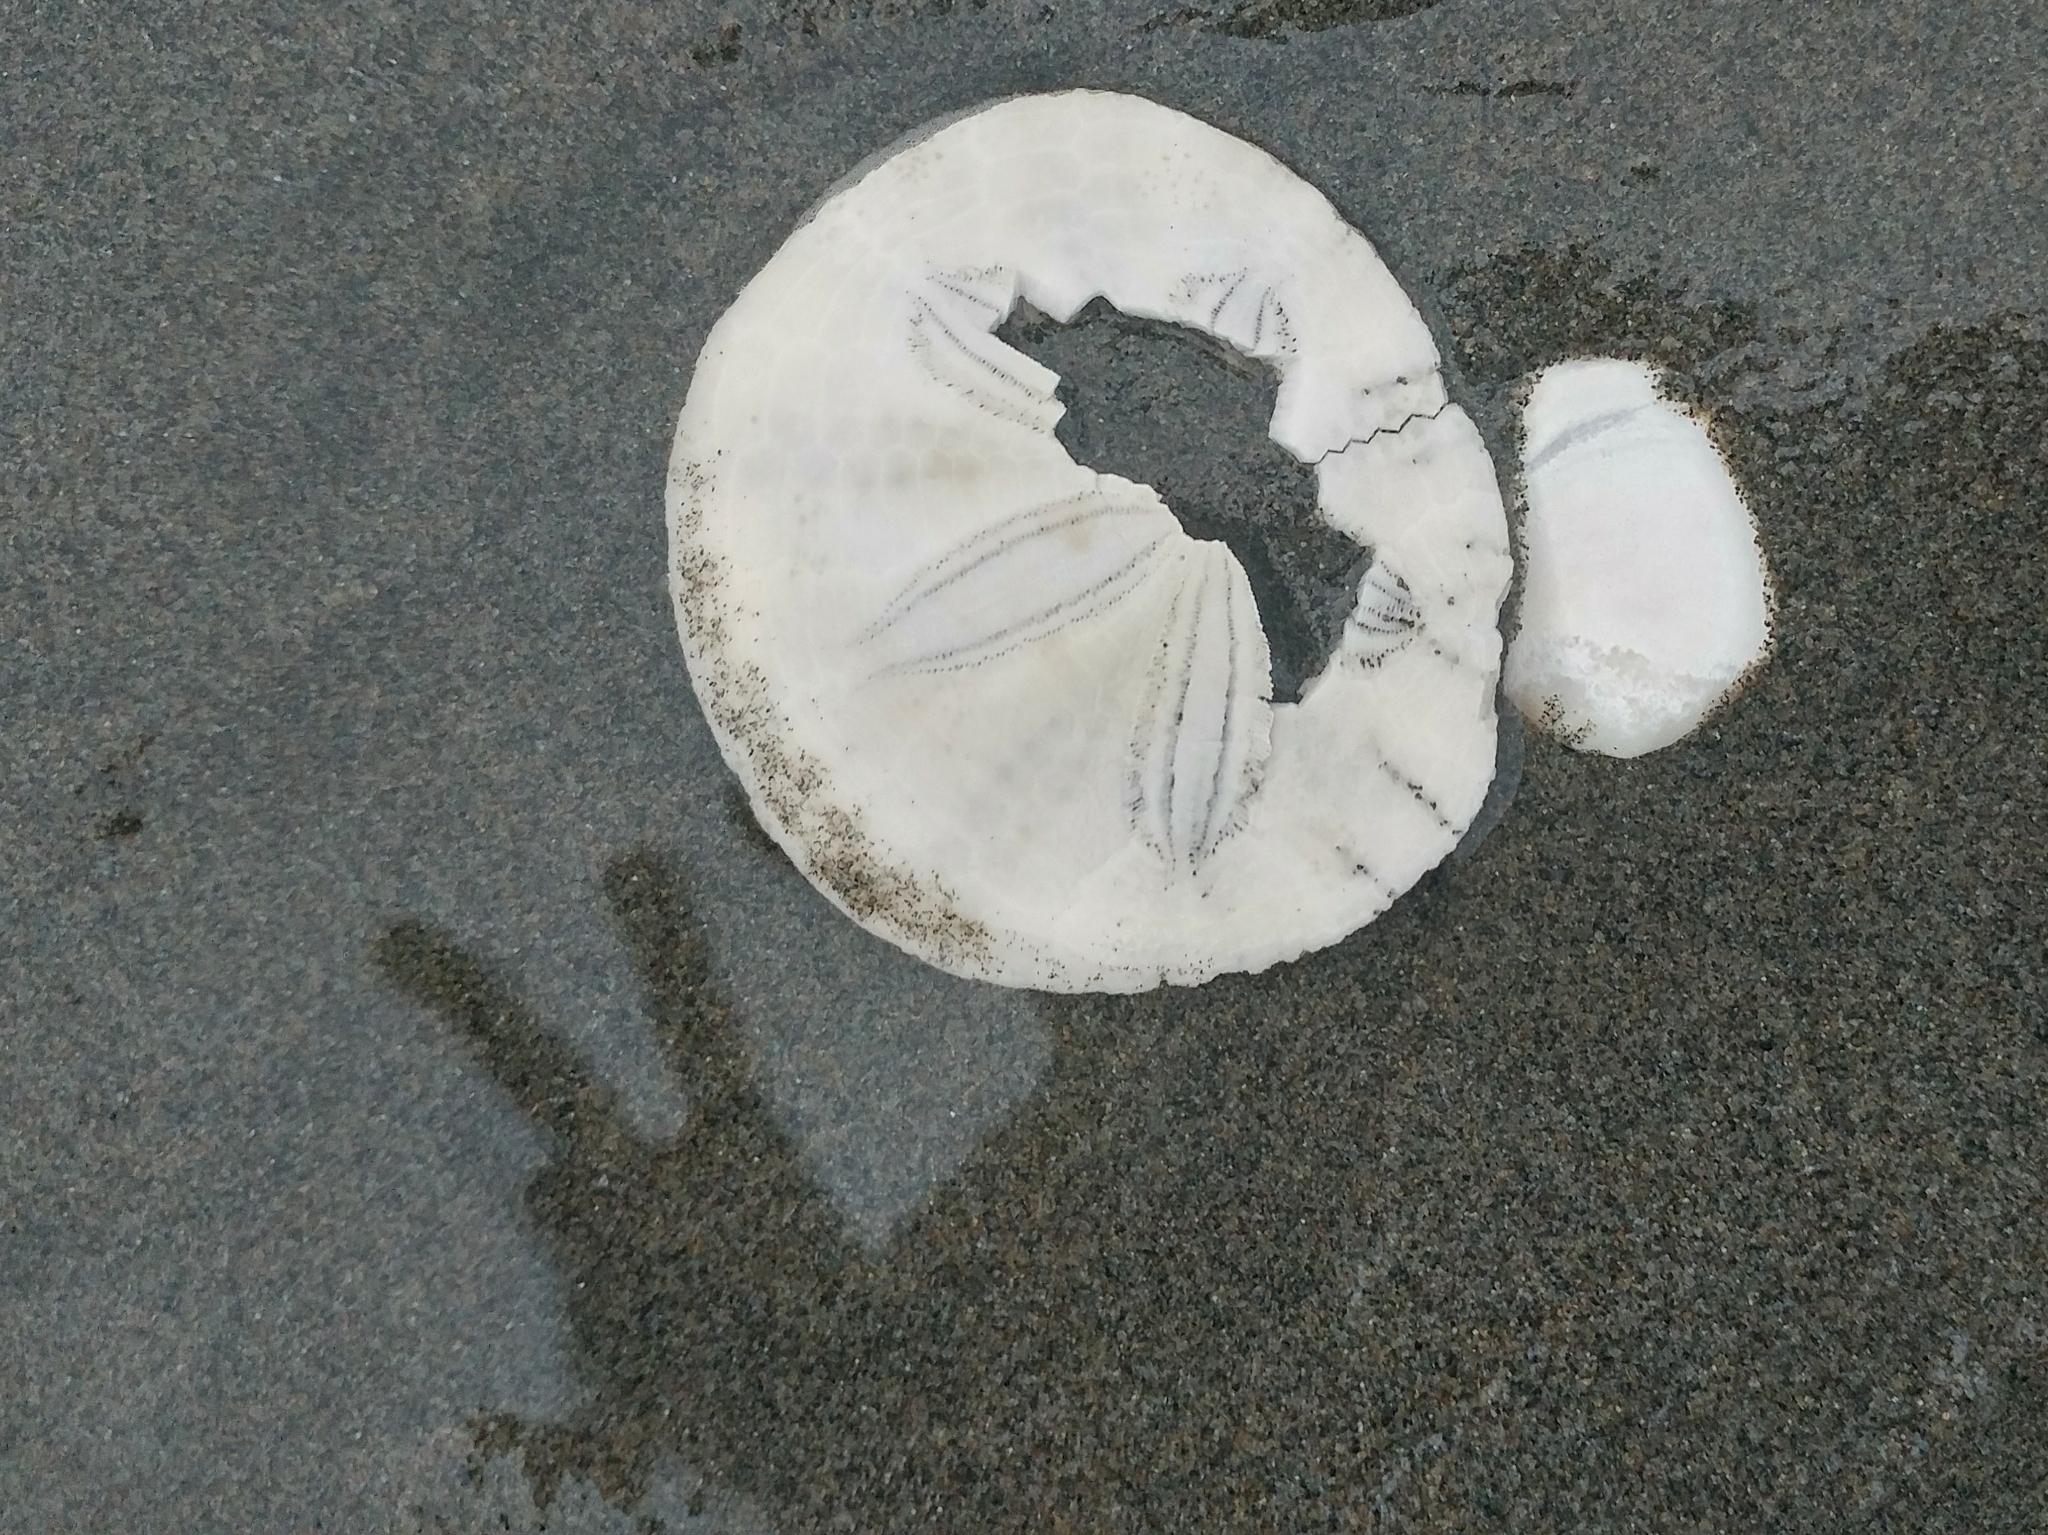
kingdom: Animalia
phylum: Echinodermata
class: Echinoidea
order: Echinolampadacea
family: Dendrasteridae
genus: Dendraster
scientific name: Dendraster excentricus
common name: Eccentric sand dollar sea urchin
